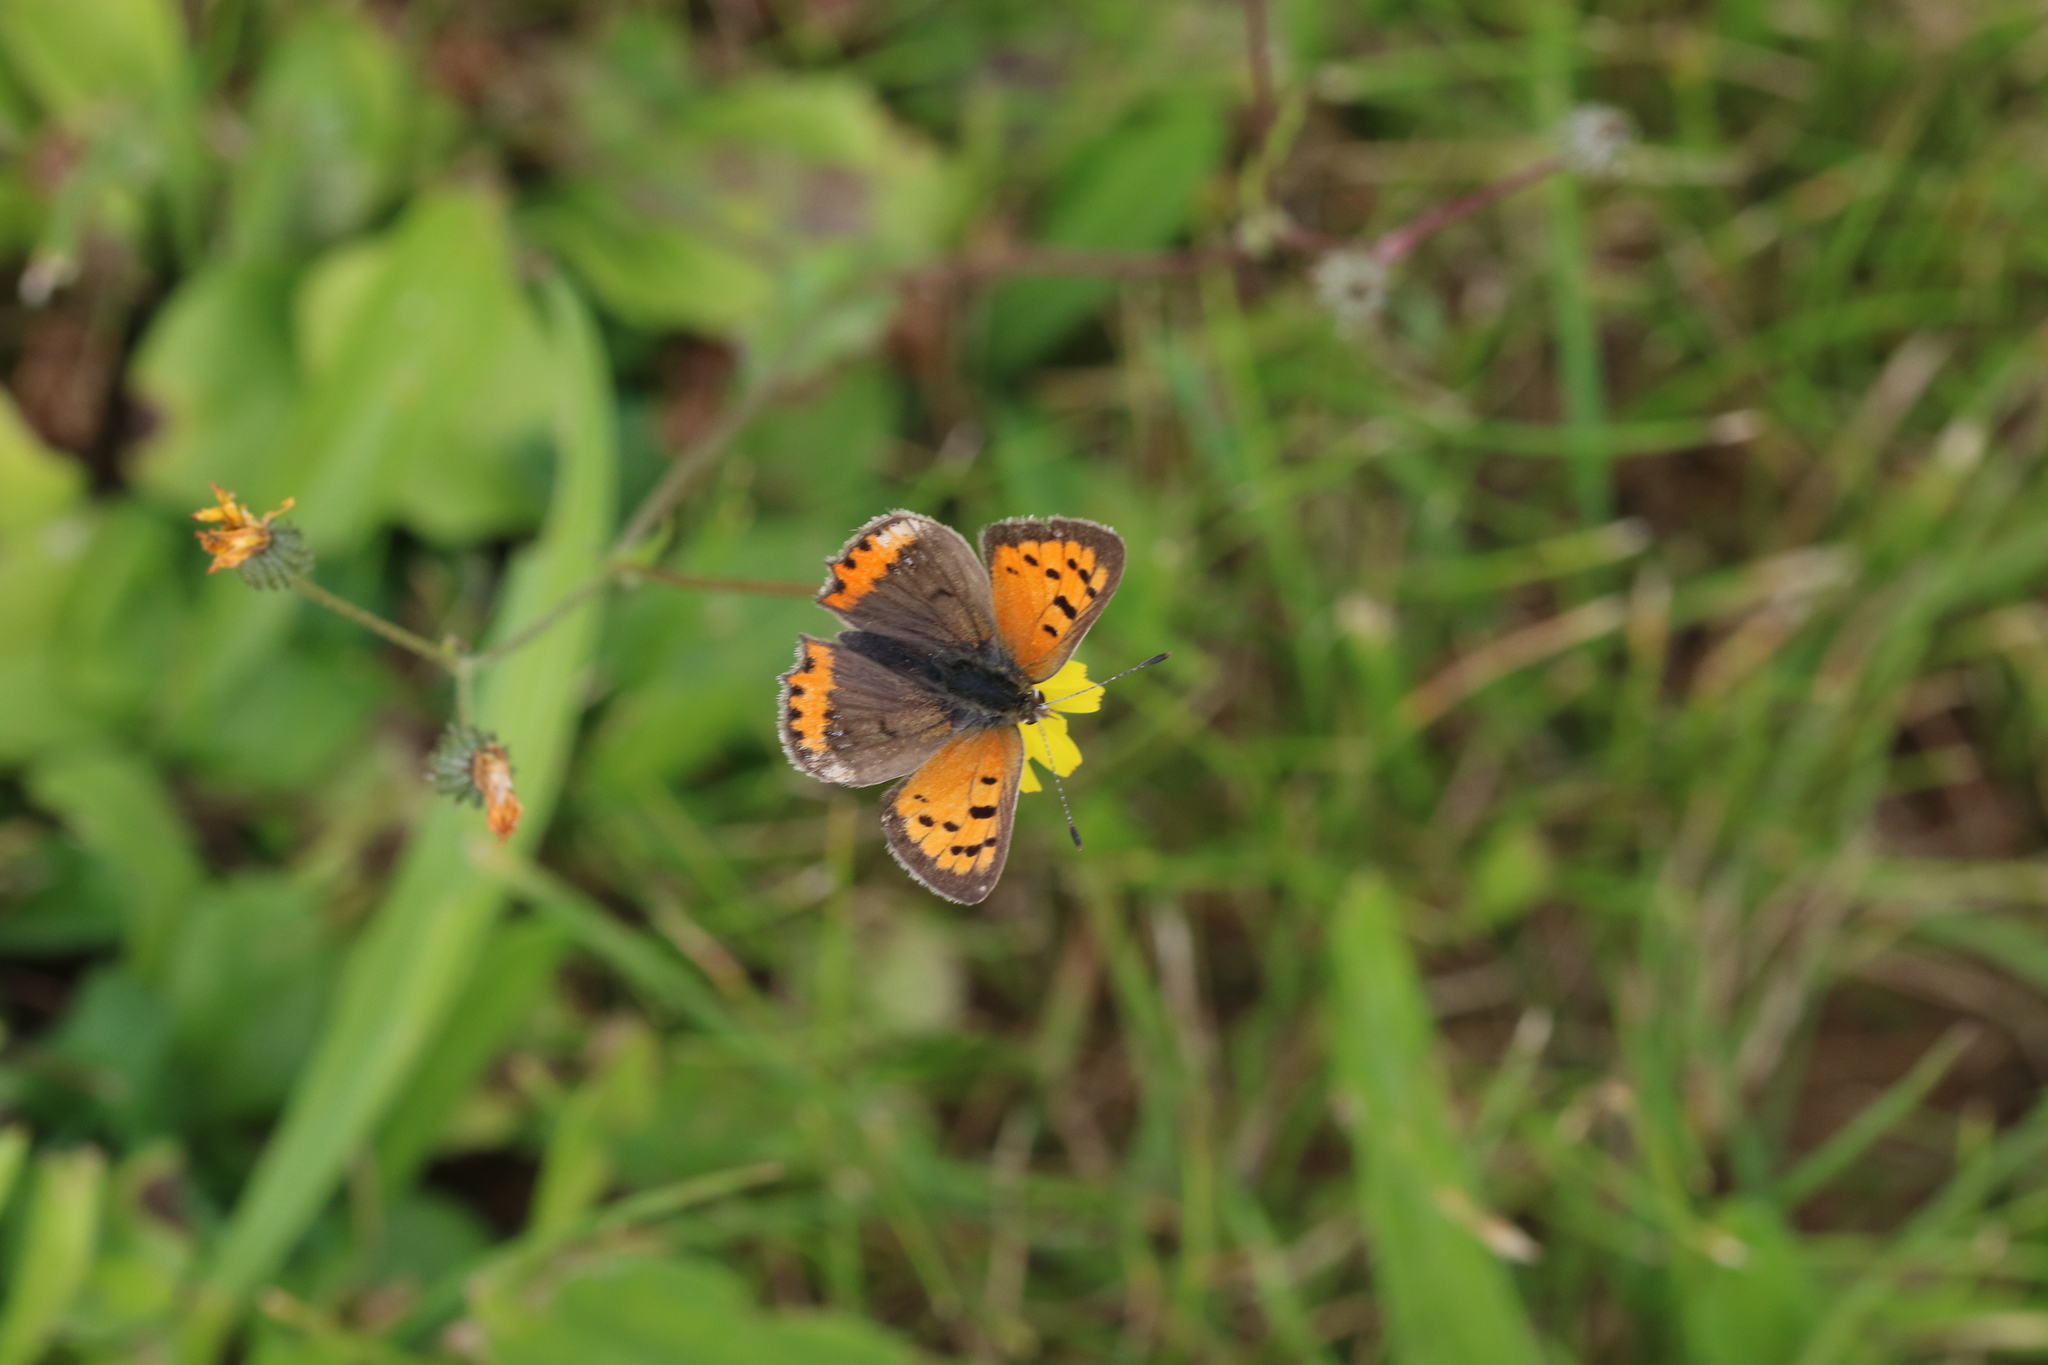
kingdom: Animalia
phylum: Arthropoda
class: Insecta
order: Lepidoptera
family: Lycaenidae
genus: Lycaena
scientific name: Lycaena phlaeas
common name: Small copper
